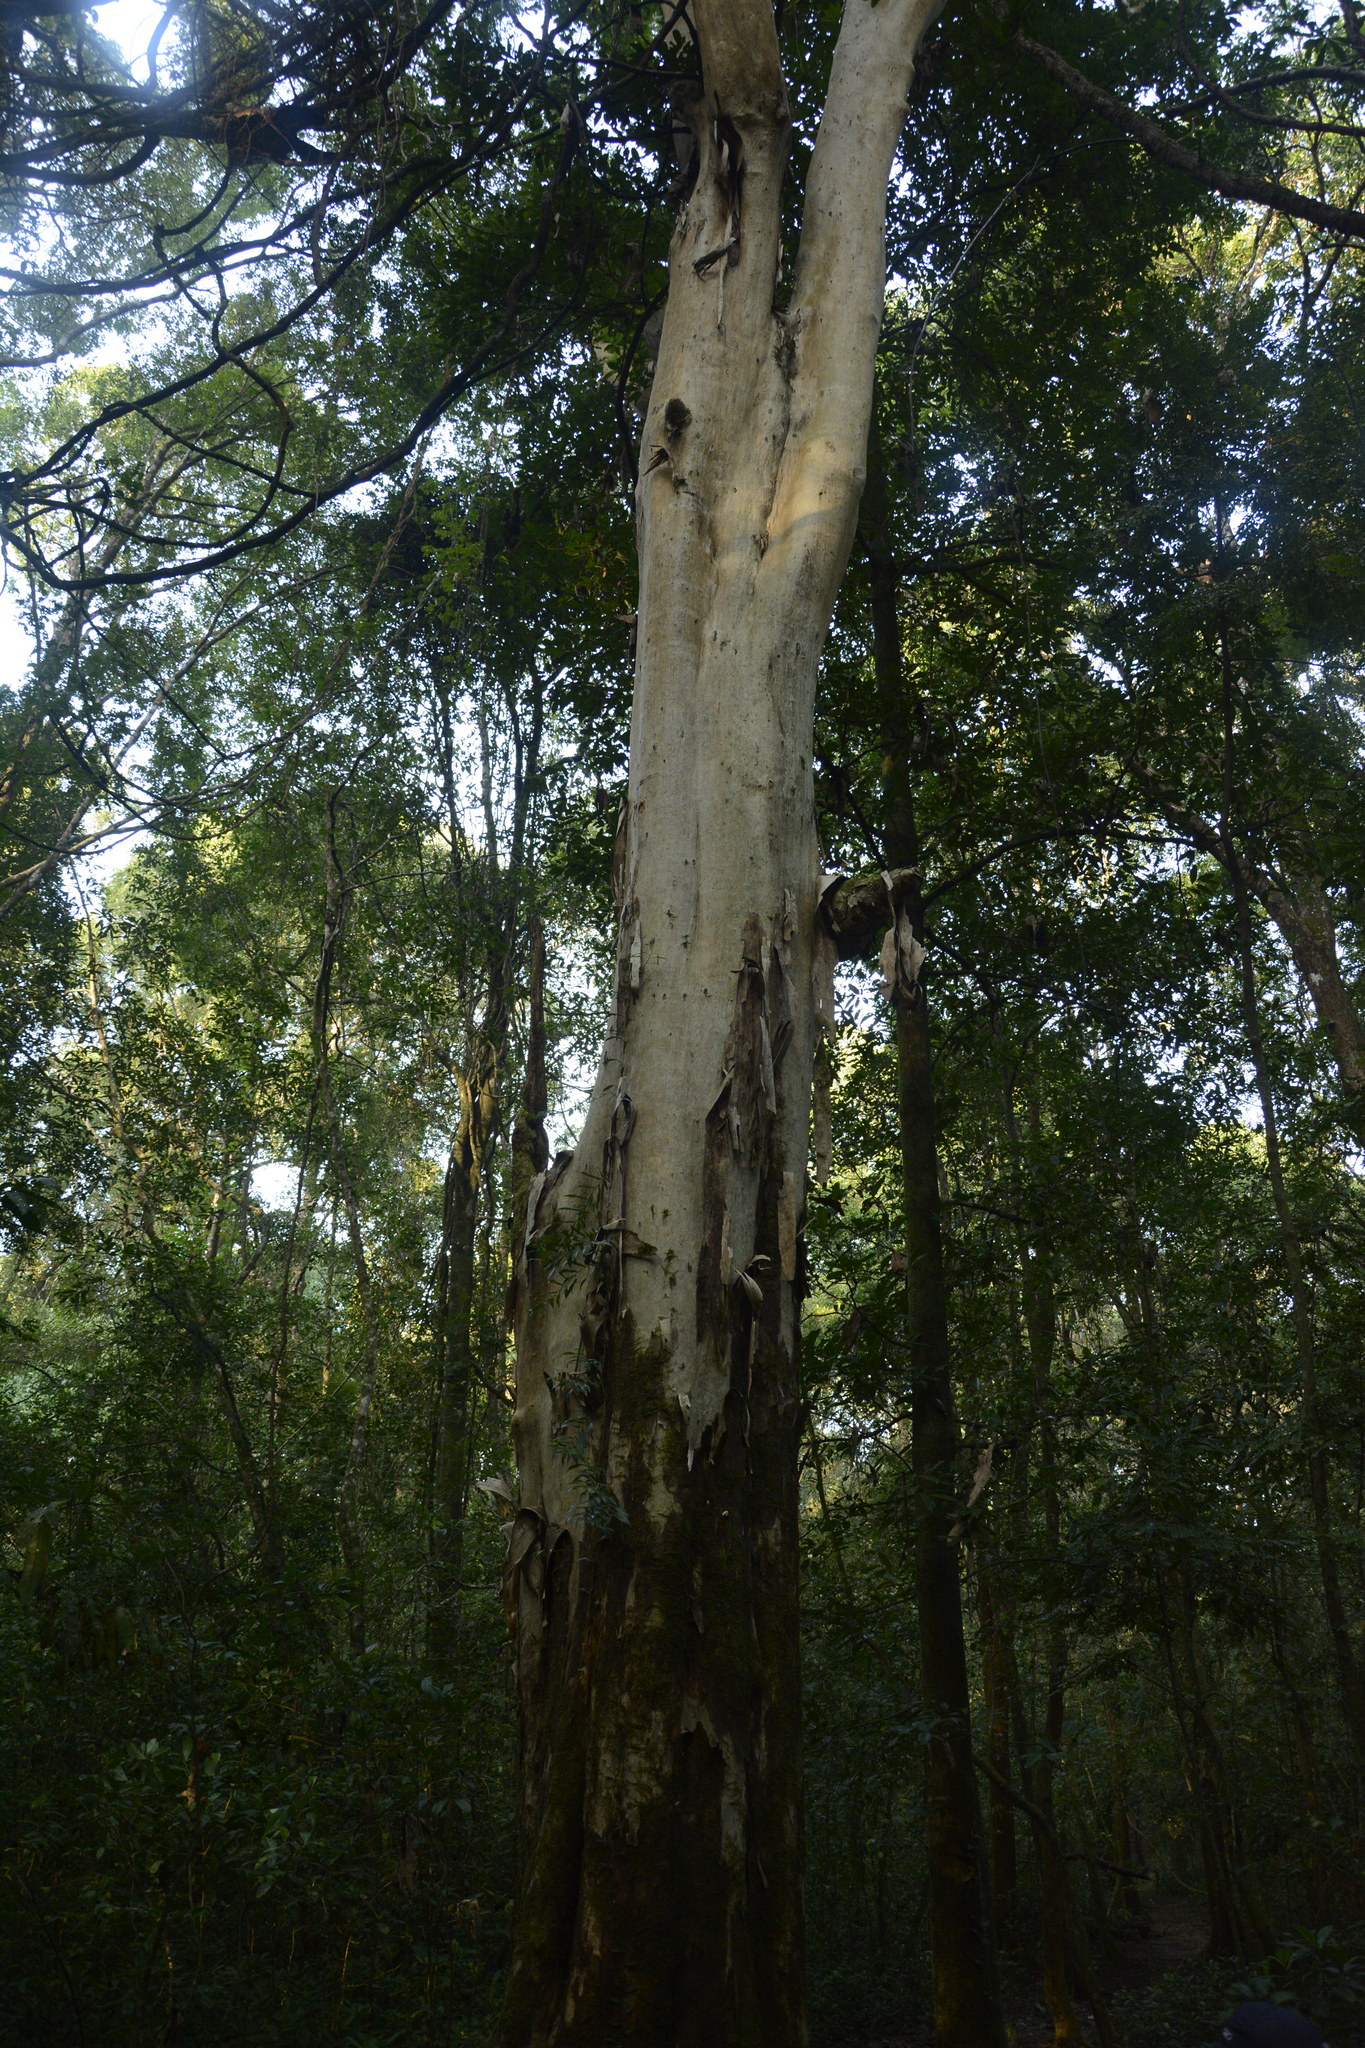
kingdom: Plantae
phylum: Tracheophyta
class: Magnoliopsida
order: Myrtales
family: Lythraceae
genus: Lagerstroemia
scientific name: Lagerstroemia microcarpa
